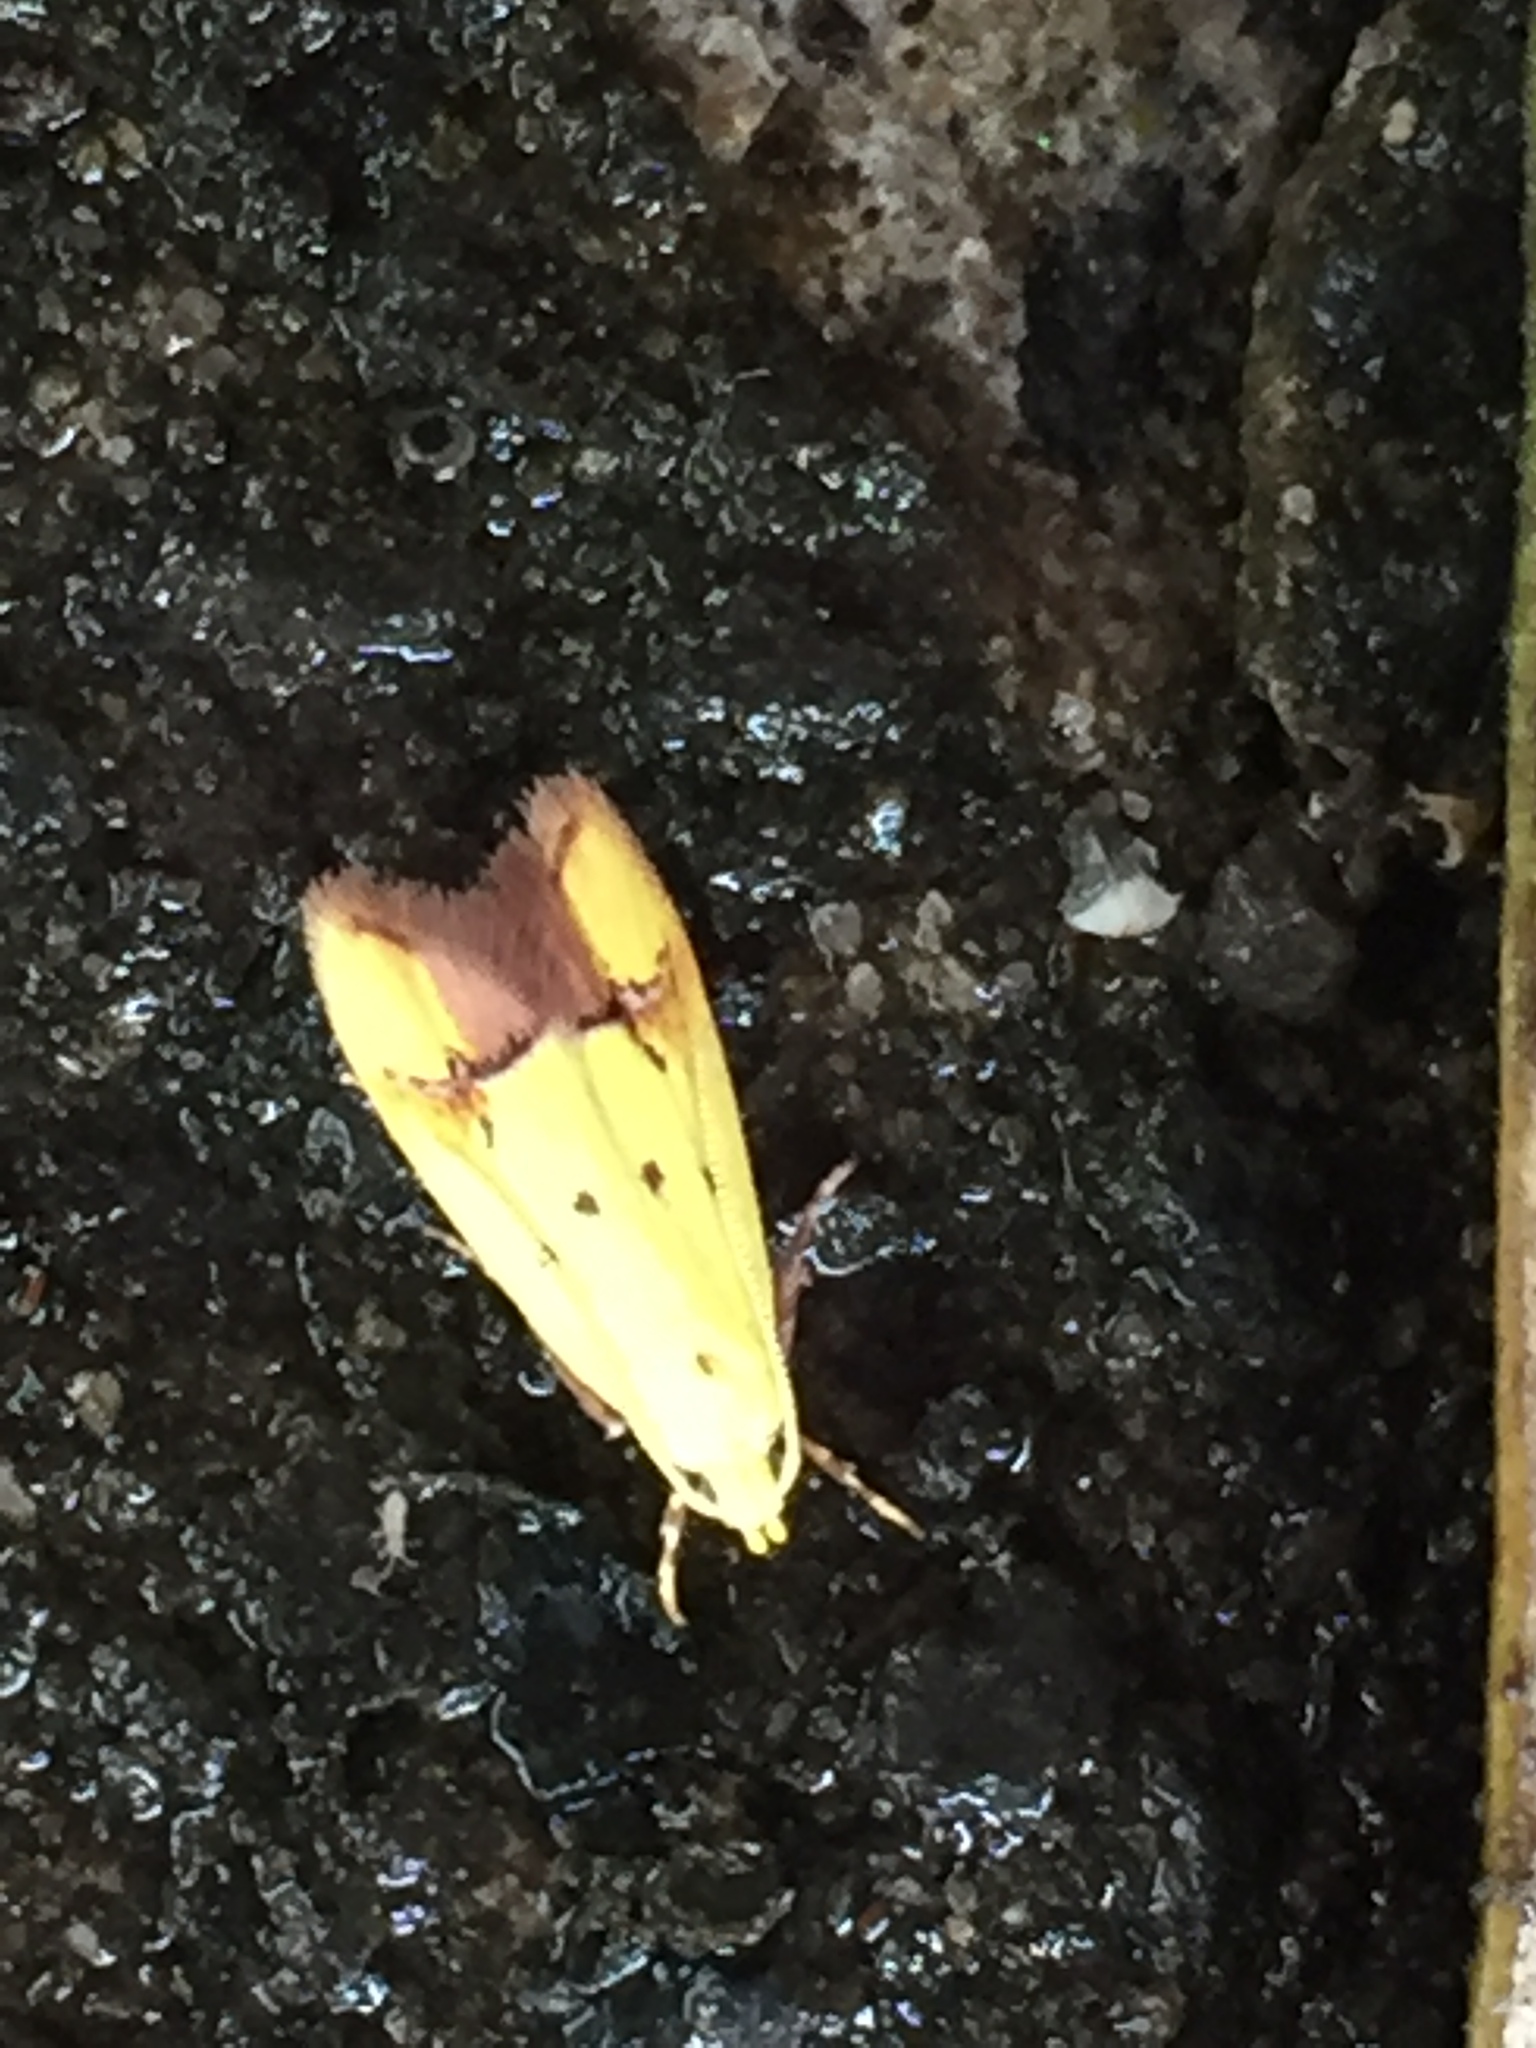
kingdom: Animalia
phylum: Arthropoda
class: Insecta
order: Lepidoptera
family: Oecophoridae
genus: Gymnobathra
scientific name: Gymnobathra flavidella
